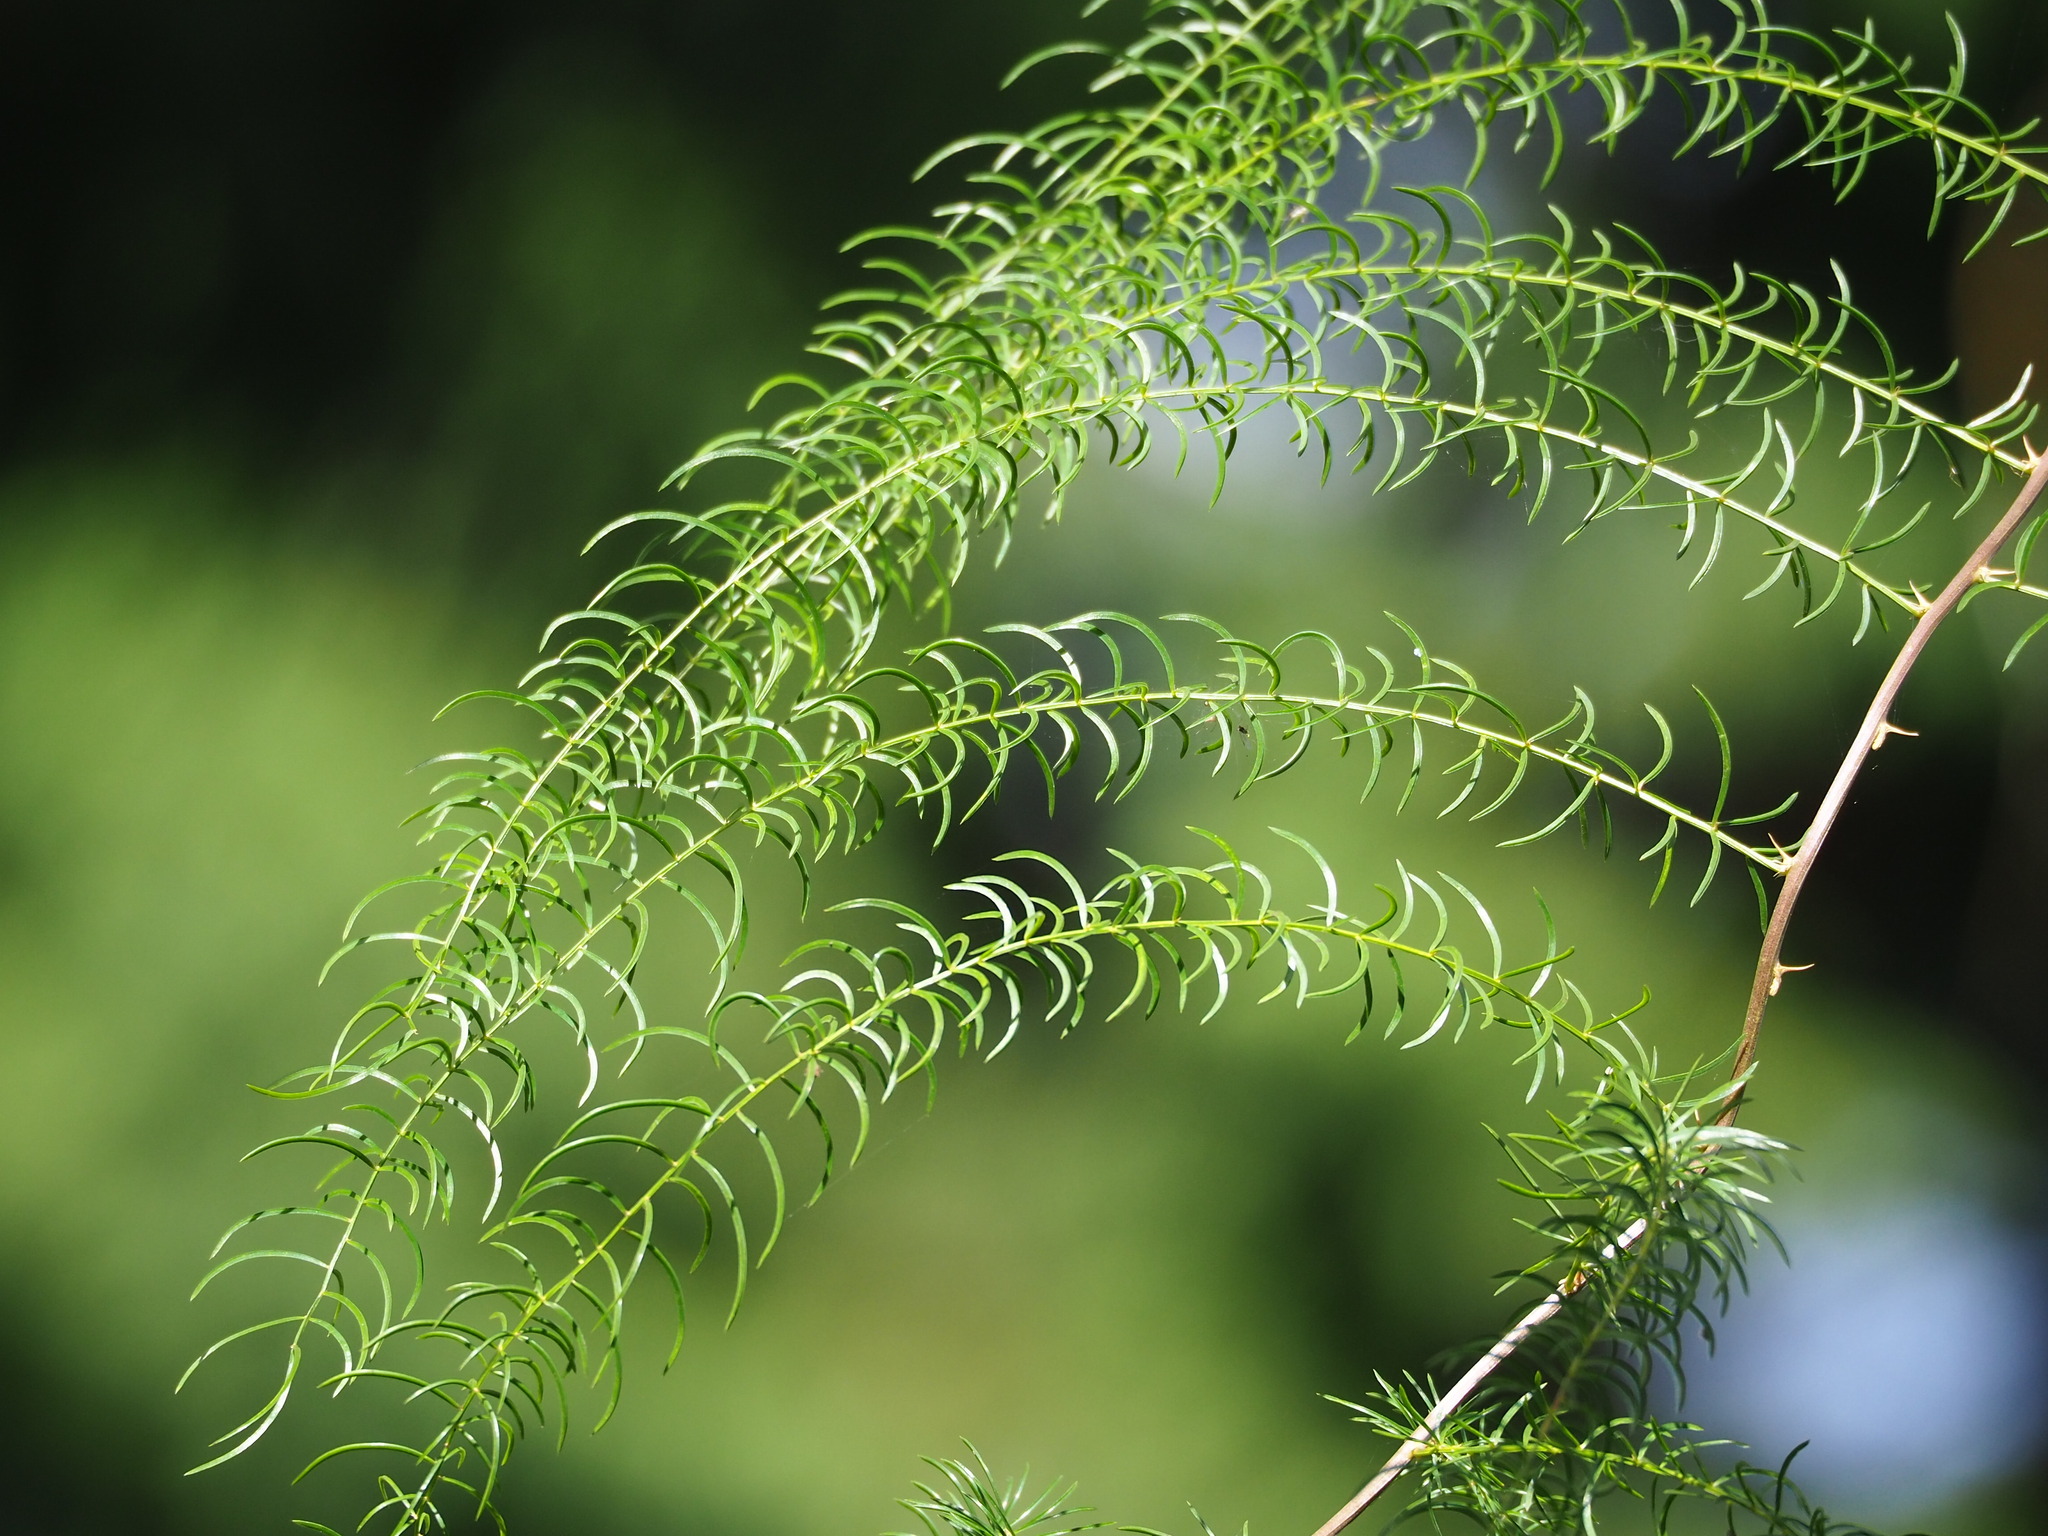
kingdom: Plantae
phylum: Tracheophyta
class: Liliopsida
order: Asparagales
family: Asparagaceae
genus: Asparagus
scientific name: Asparagus cochinchinensis
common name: Chinese asparagus
